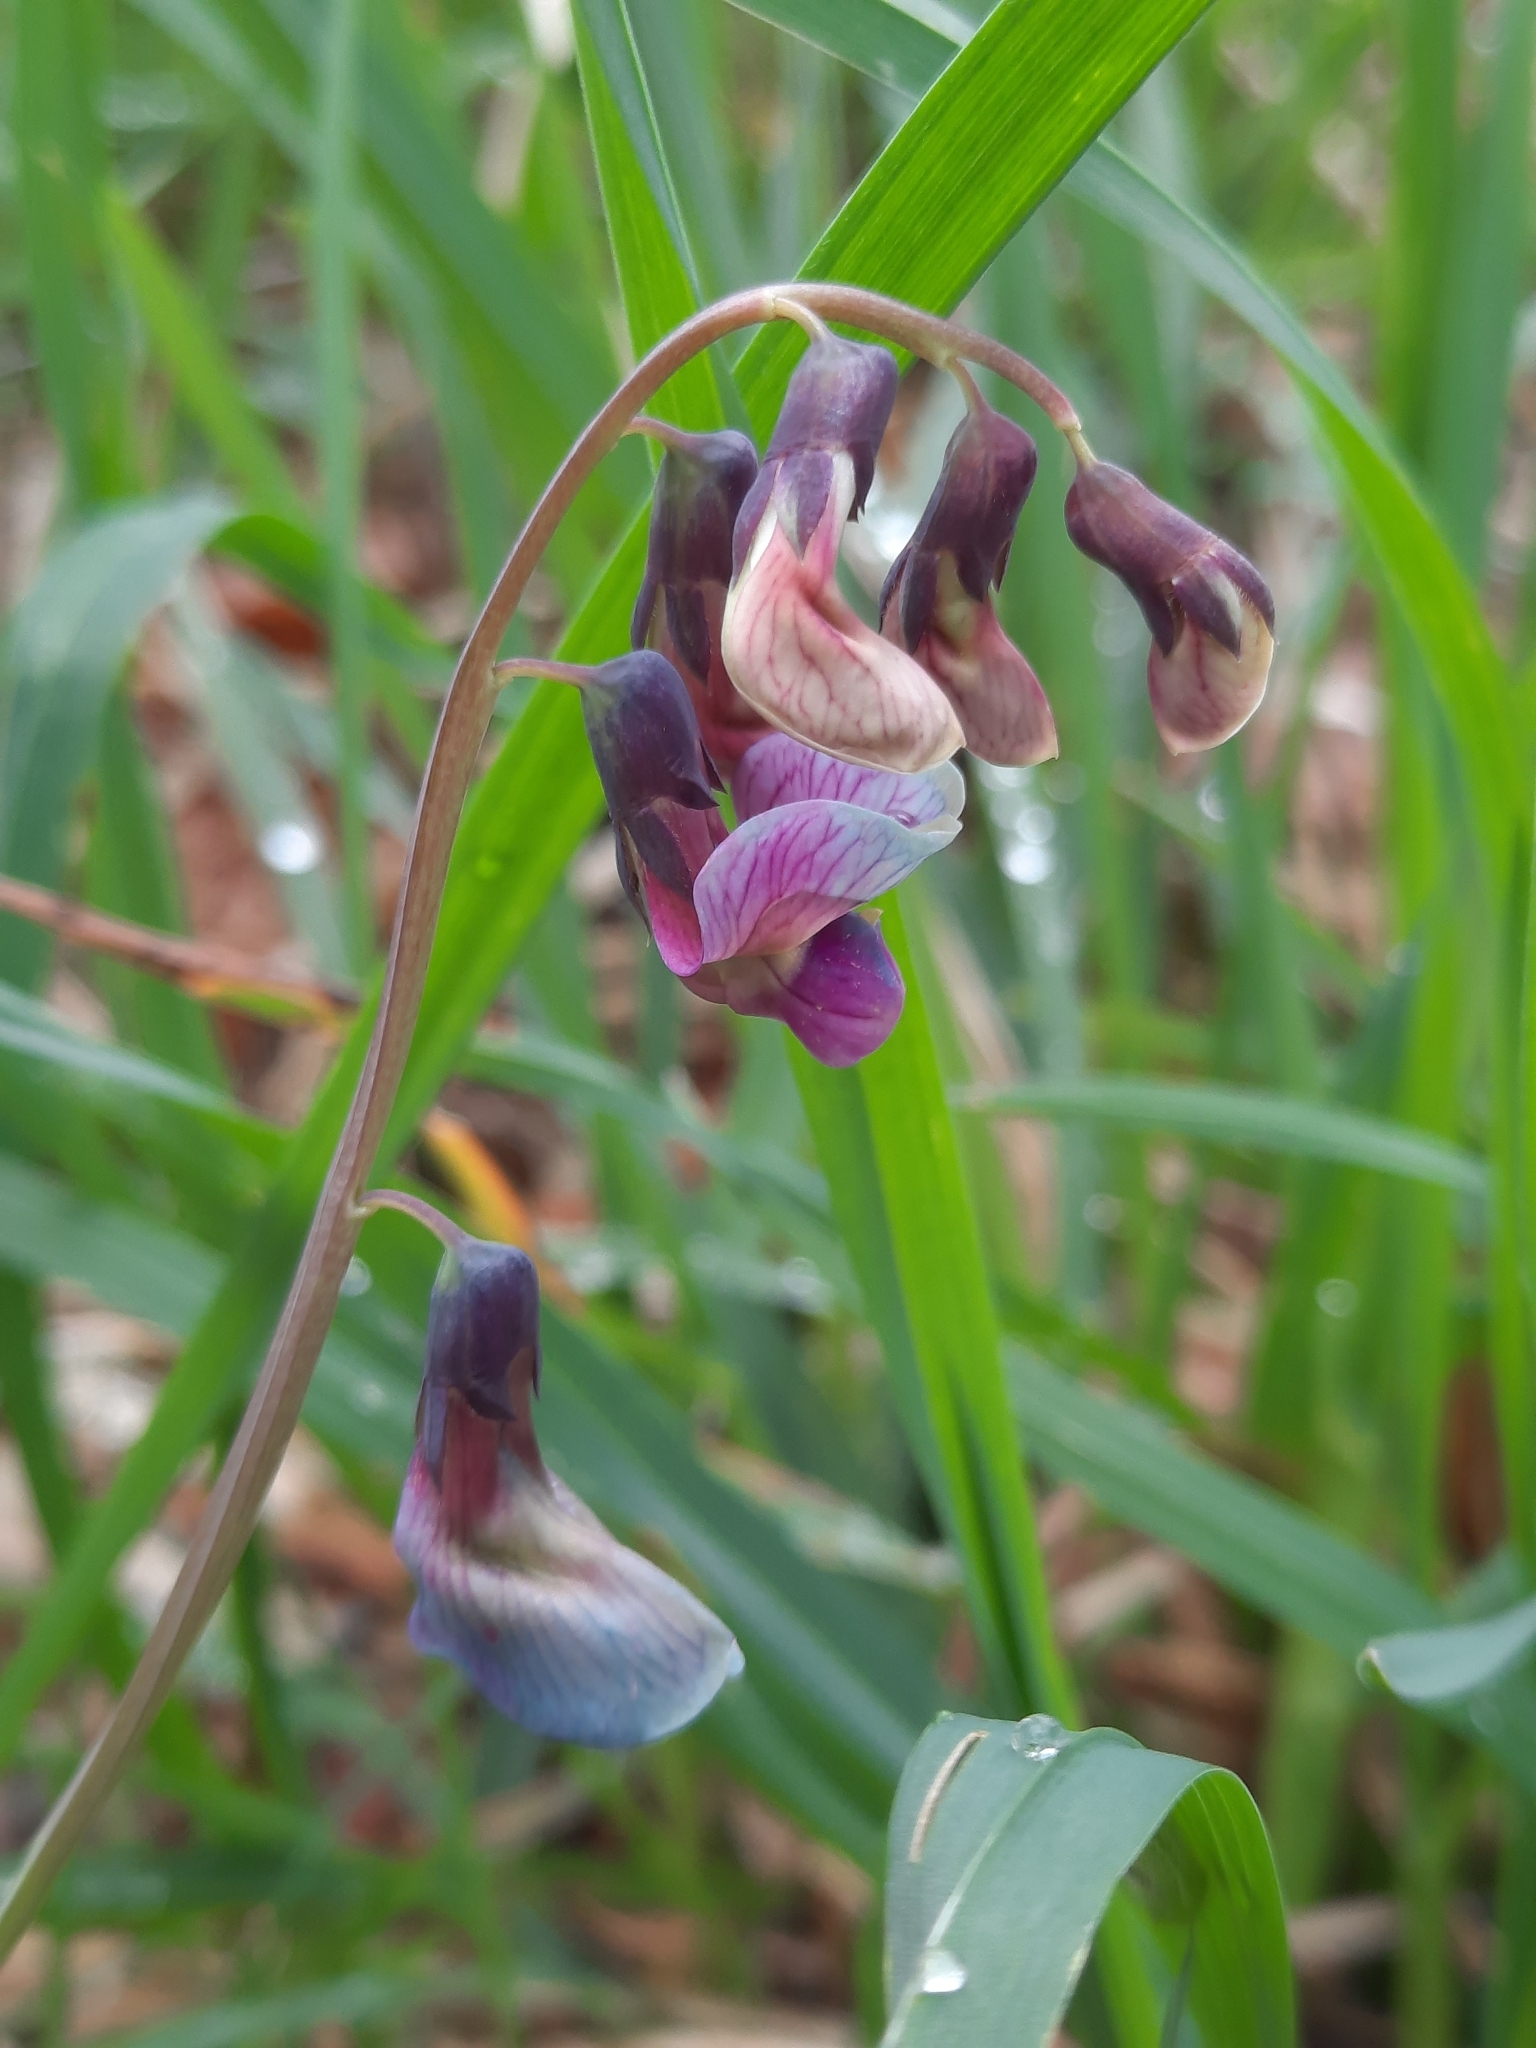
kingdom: Plantae
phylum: Tracheophyta
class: Magnoliopsida
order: Fabales
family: Fabaceae
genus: Lathyrus
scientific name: Lathyrus linifolius
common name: Bitter-vetch
